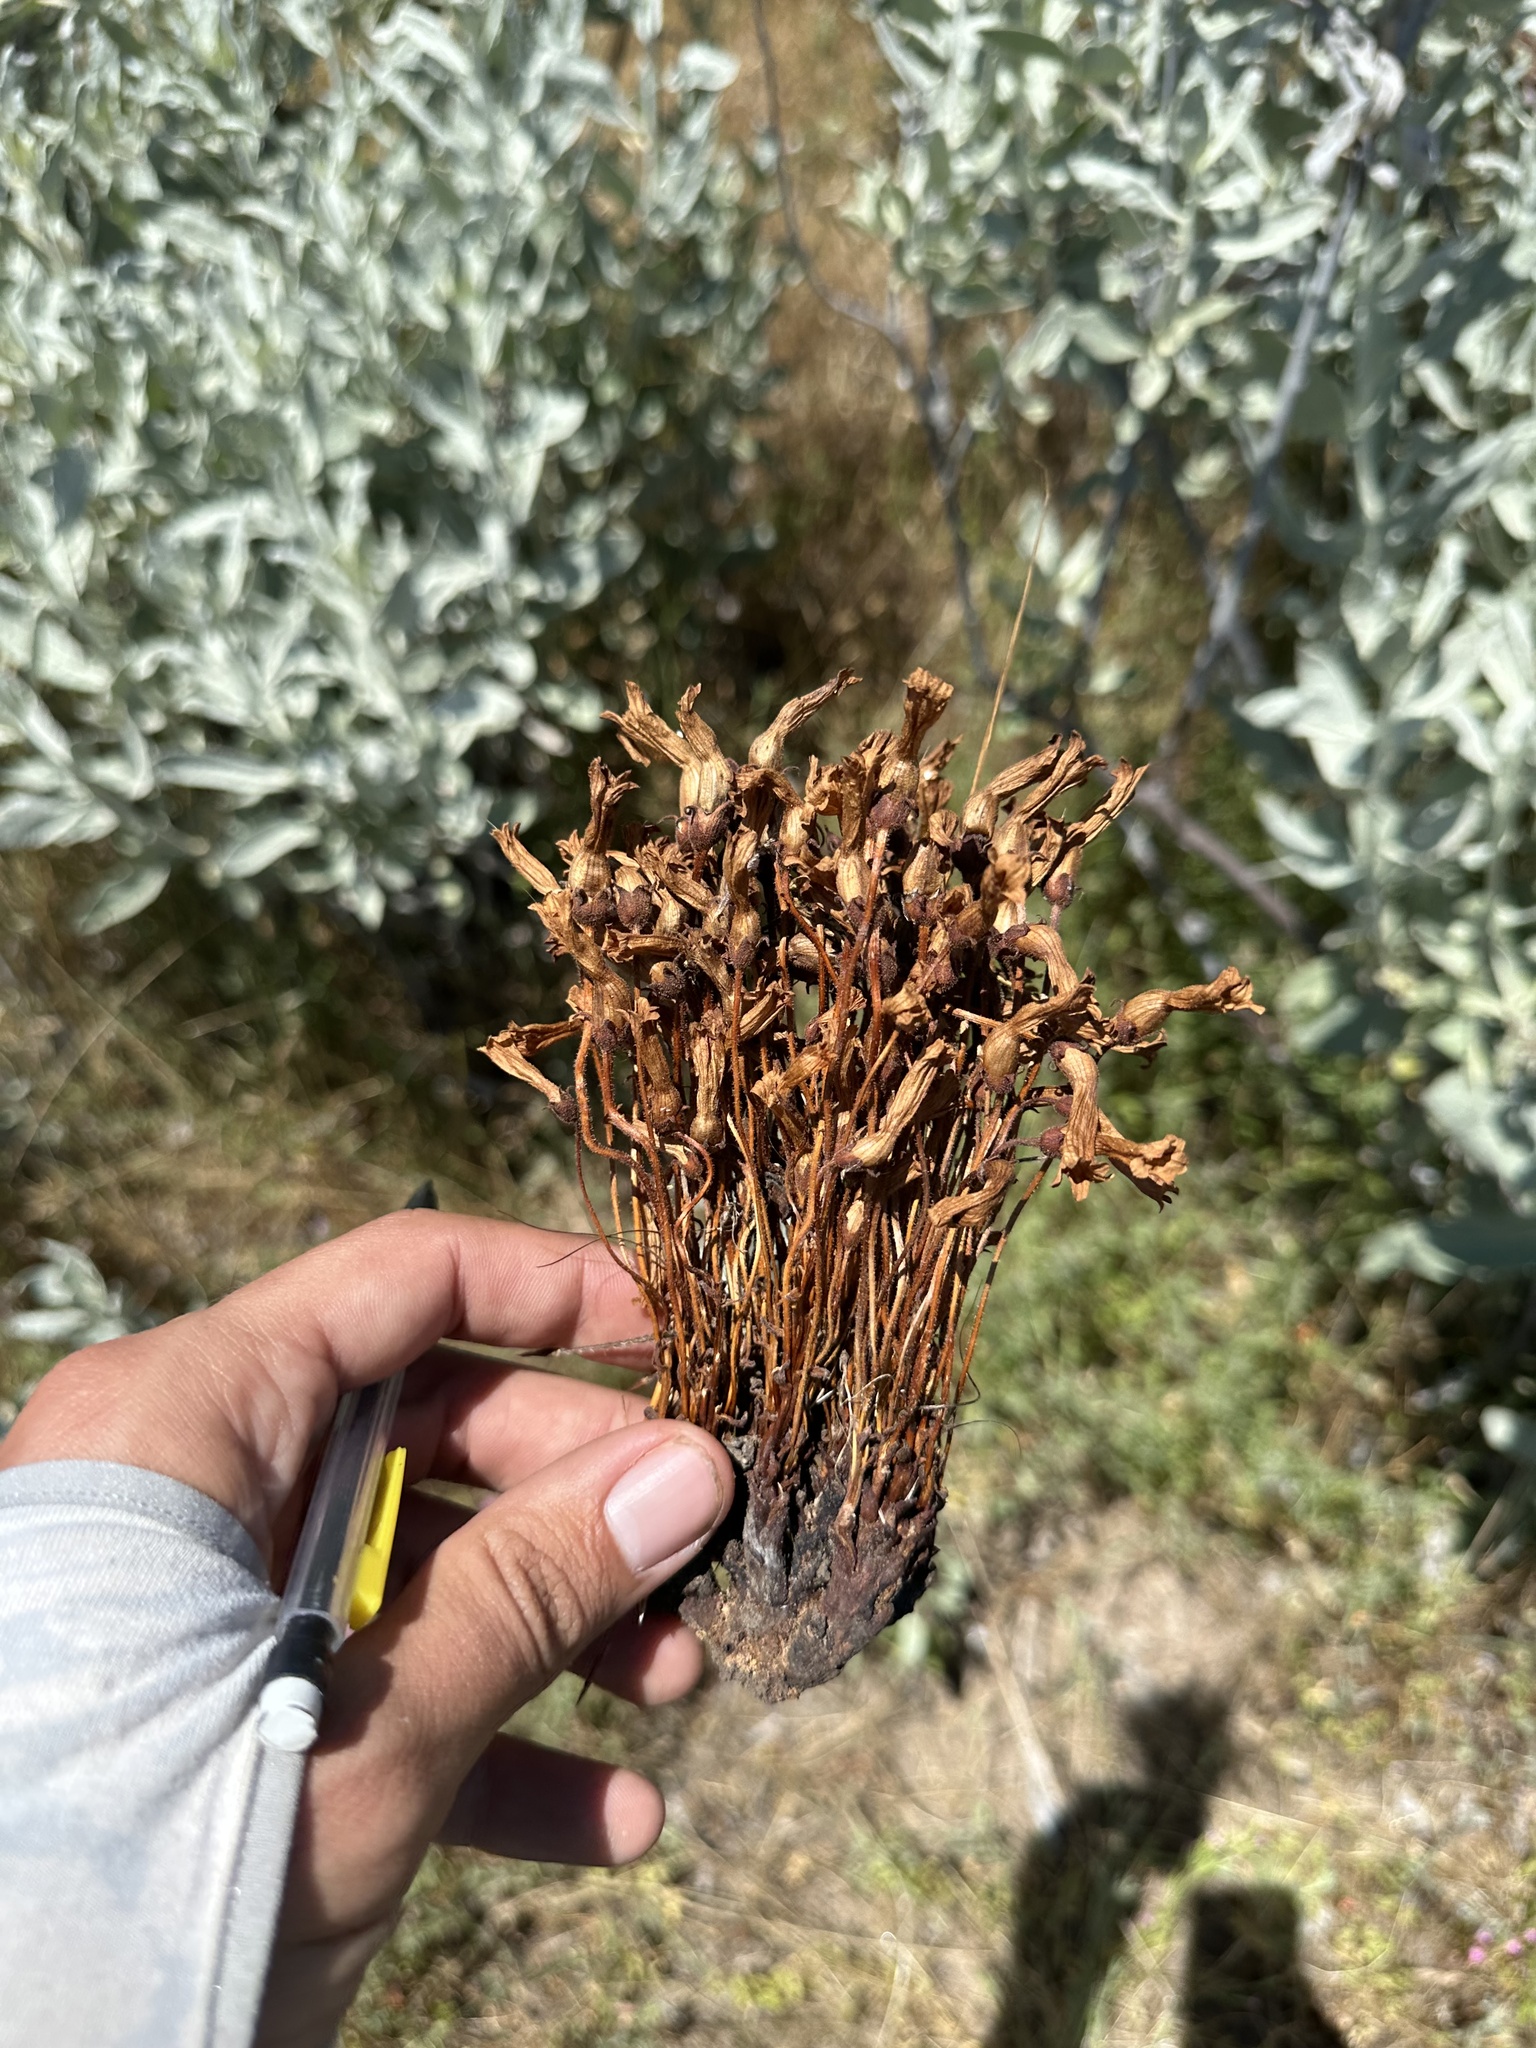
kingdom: Plantae
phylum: Tracheophyta
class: Magnoliopsida
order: Lamiales
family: Orobanchaceae
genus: Aphyllon
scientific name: Aphyllon franciscanum
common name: San francisco broomrape
